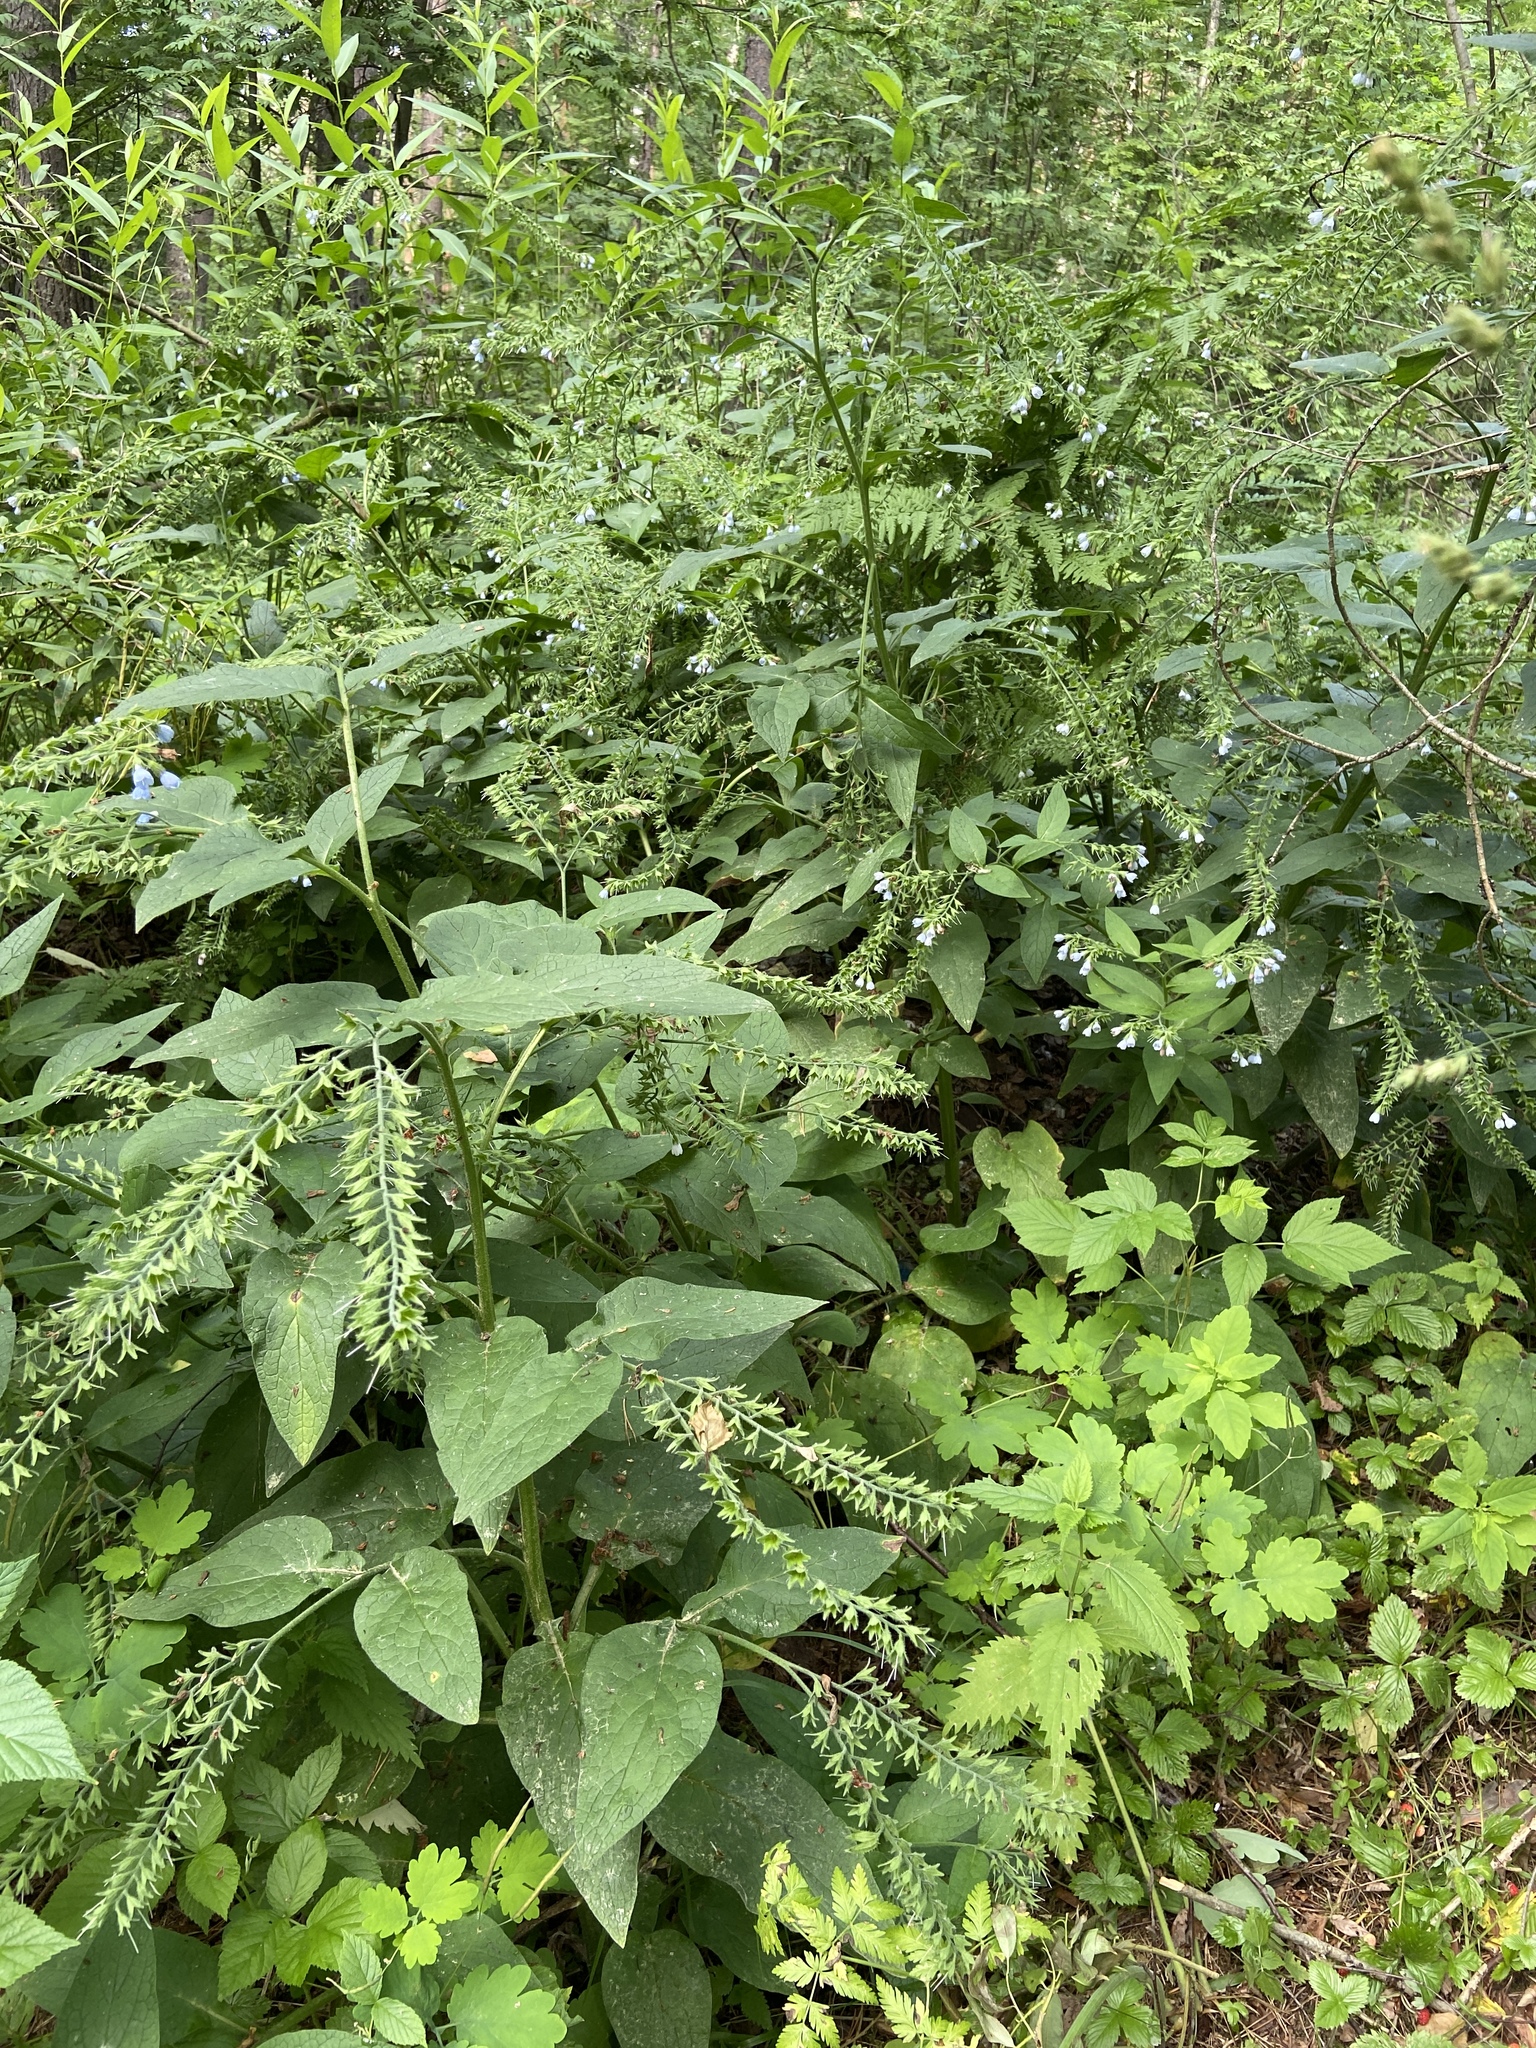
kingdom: Plantae
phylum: Tracheophyta
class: Magnoliopsida
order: Boraginales
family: Boraginaceae
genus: Symphytum
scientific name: Symphytum caucasicum
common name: Caucasian comfrey
